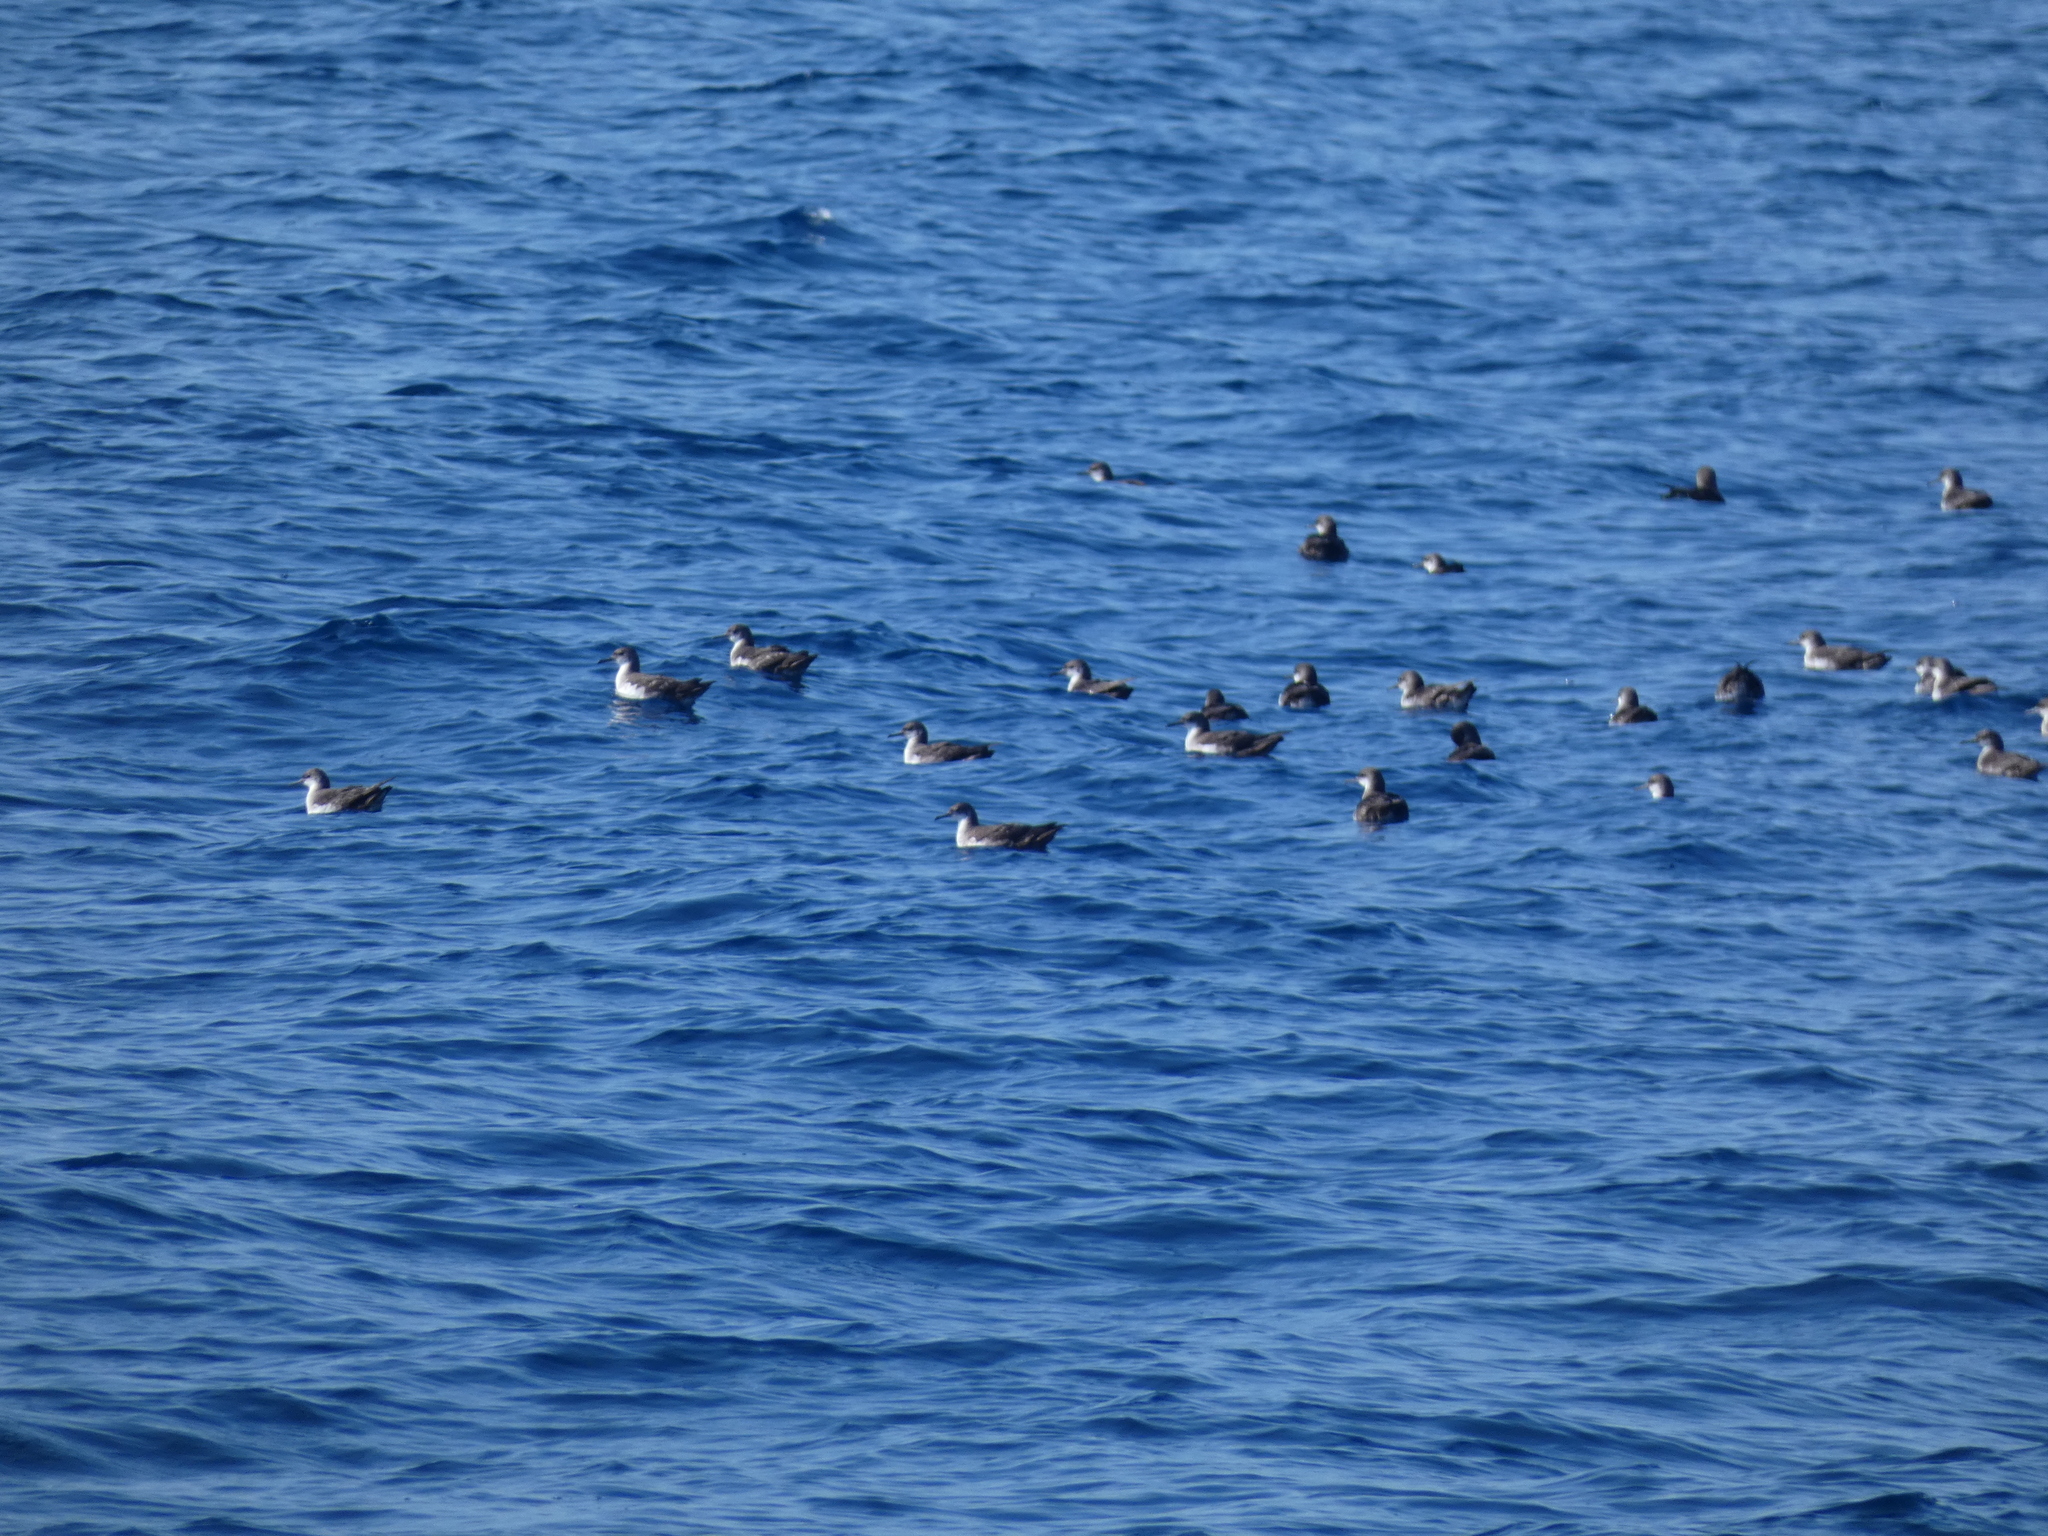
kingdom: Animalia
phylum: Chordata
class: Aves
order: Procellariiformes
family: Procellariidae
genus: Puffinus
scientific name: Puffinus yelkouan
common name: Yelkouan shearwater
